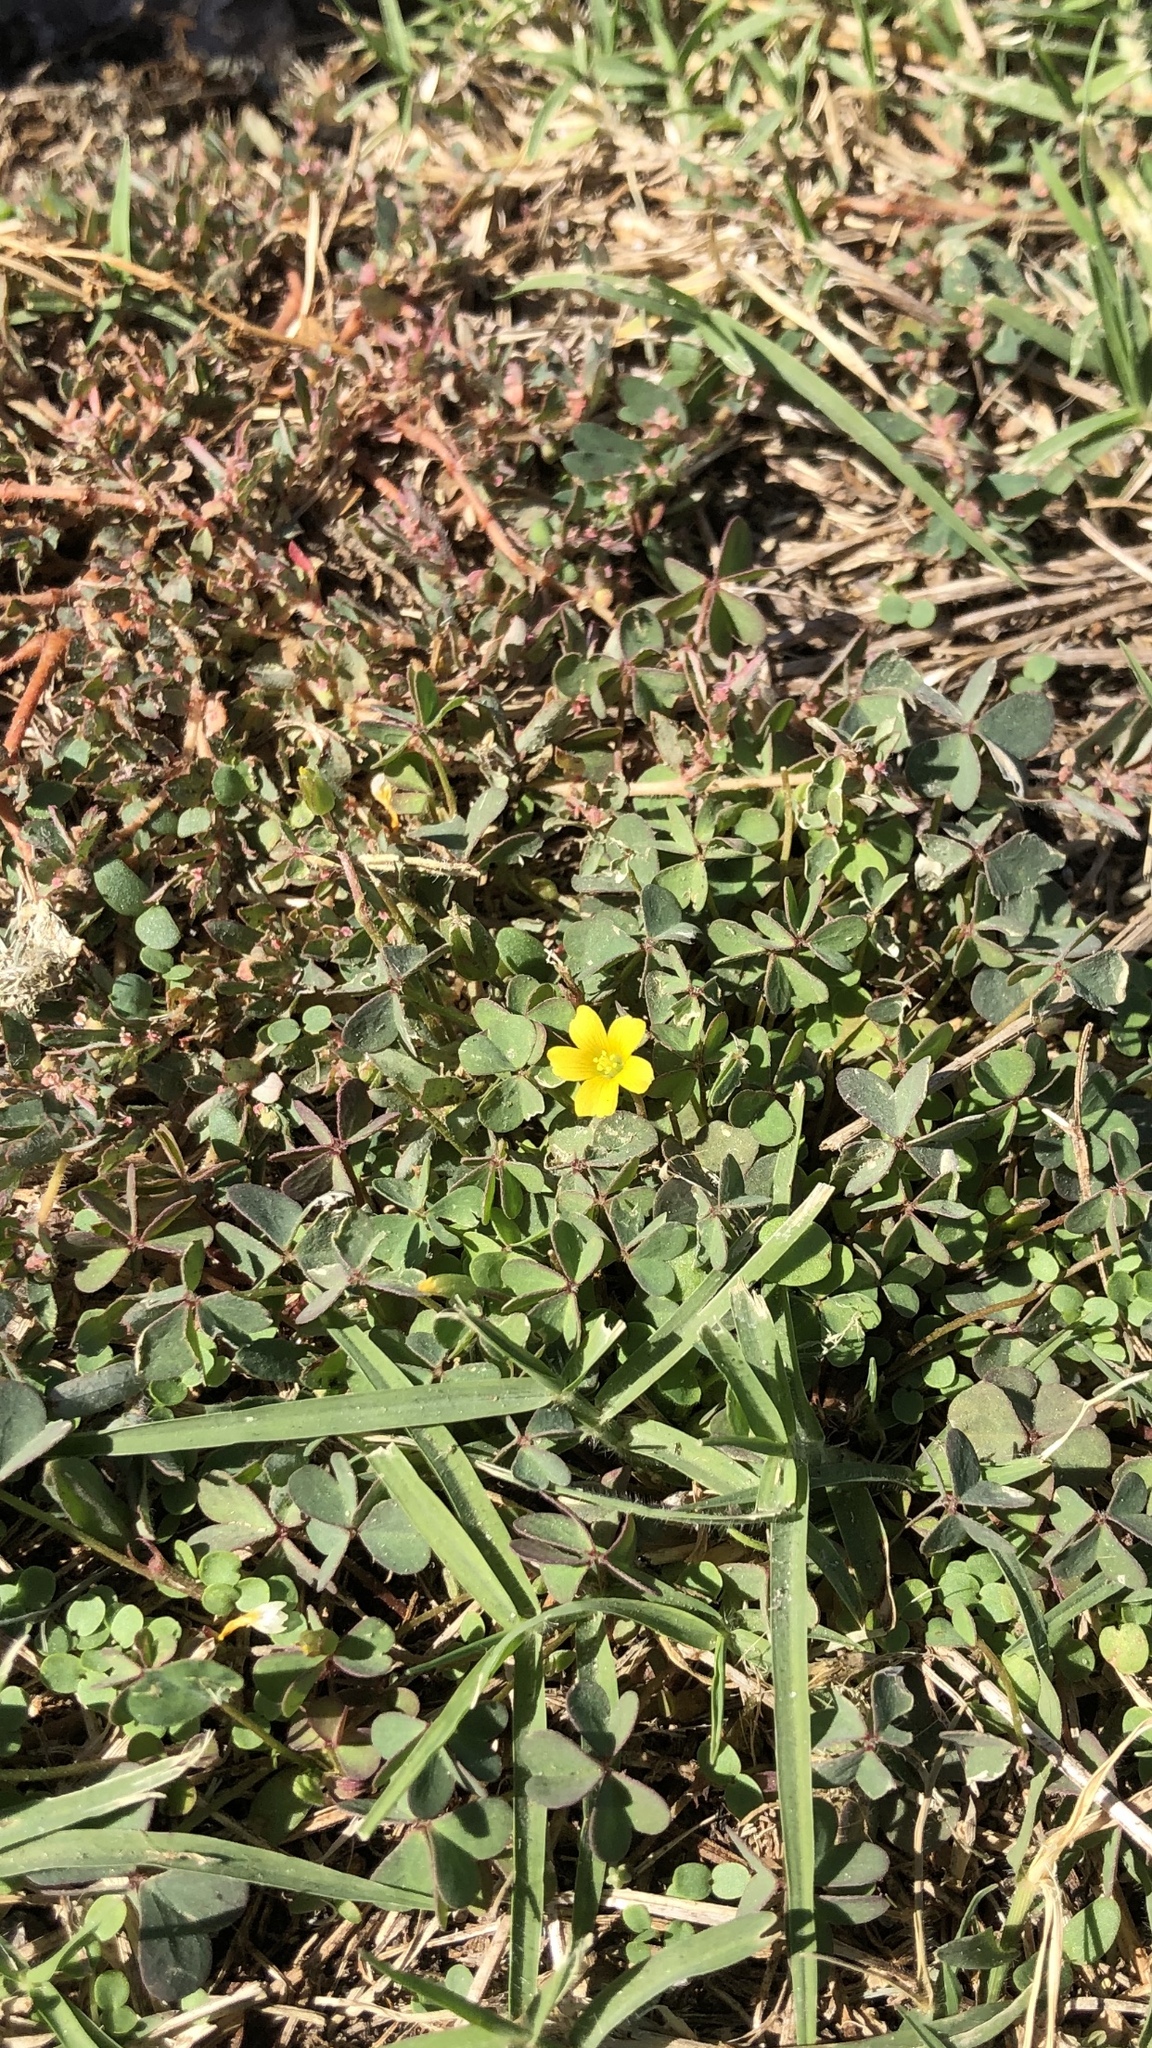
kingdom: Plantae
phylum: Tracheophyta
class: Magnoliopsida
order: Oxalidales
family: Oxalidaceae
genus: Oxalis
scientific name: Oxalis corniculata
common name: Procumbent yellow-sorrel
